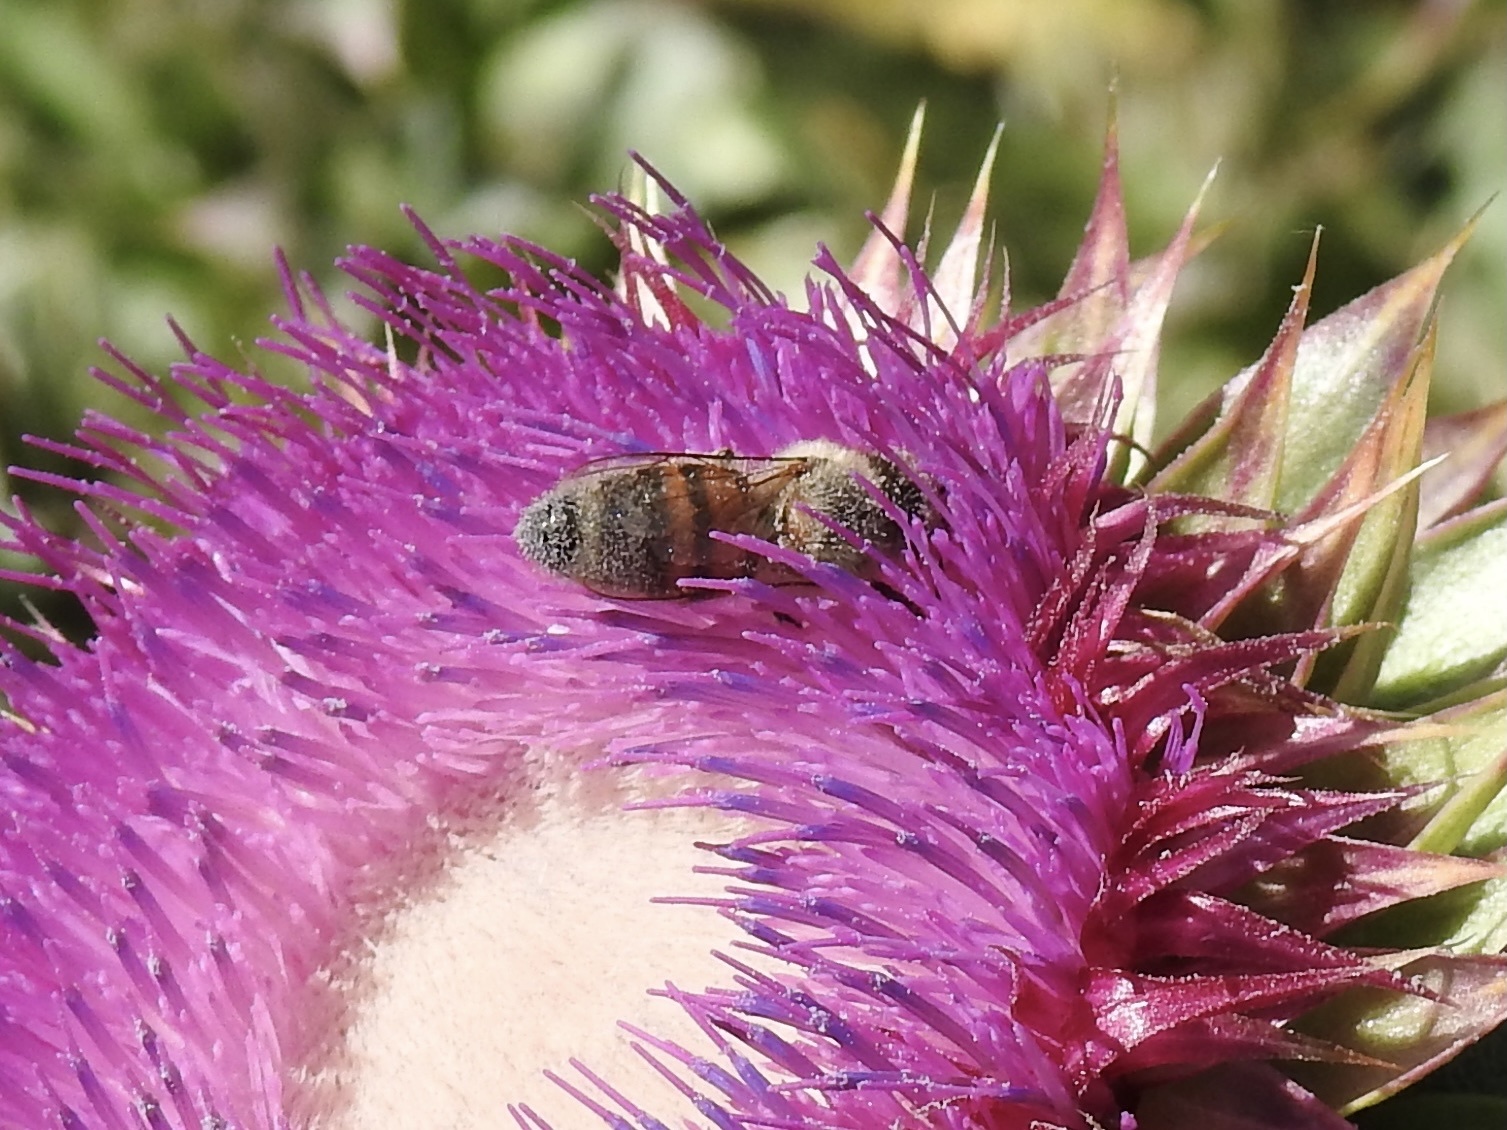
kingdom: Animalia
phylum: Arthropoda
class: Insecta
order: Hymenoptera
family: Apidae
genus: Apis
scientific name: Apis mellifera
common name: Honey bee
